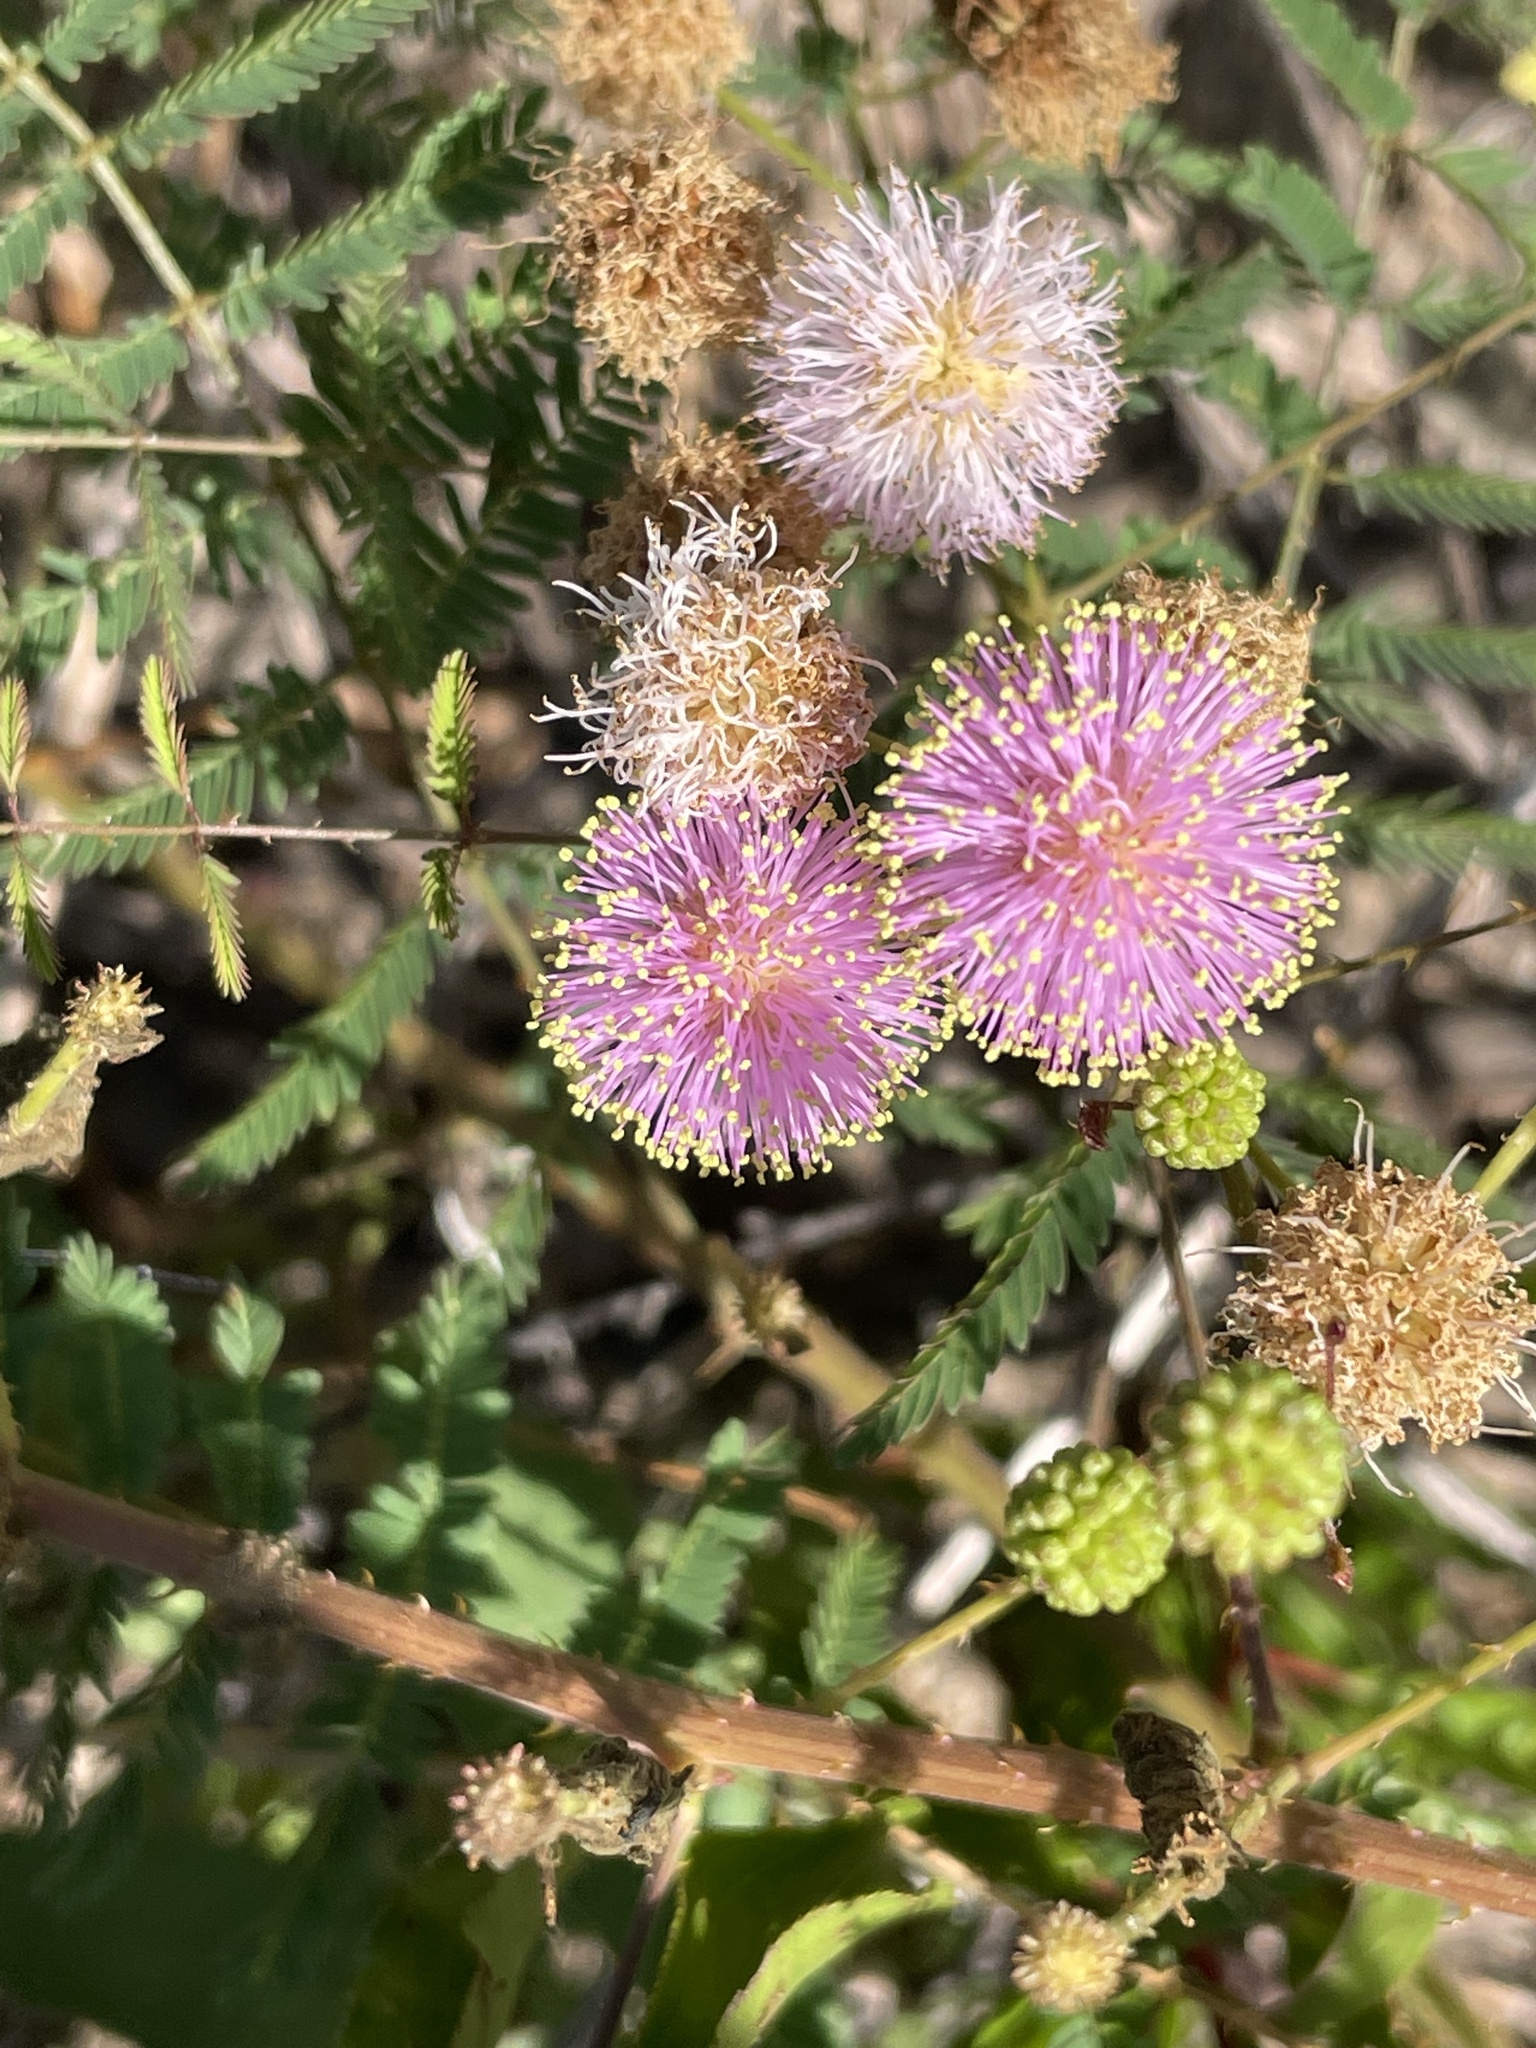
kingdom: Plantae
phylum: Tracheophyta
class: Magnoliopsida
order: Fabales
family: Fabaceae
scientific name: Fabaceae
